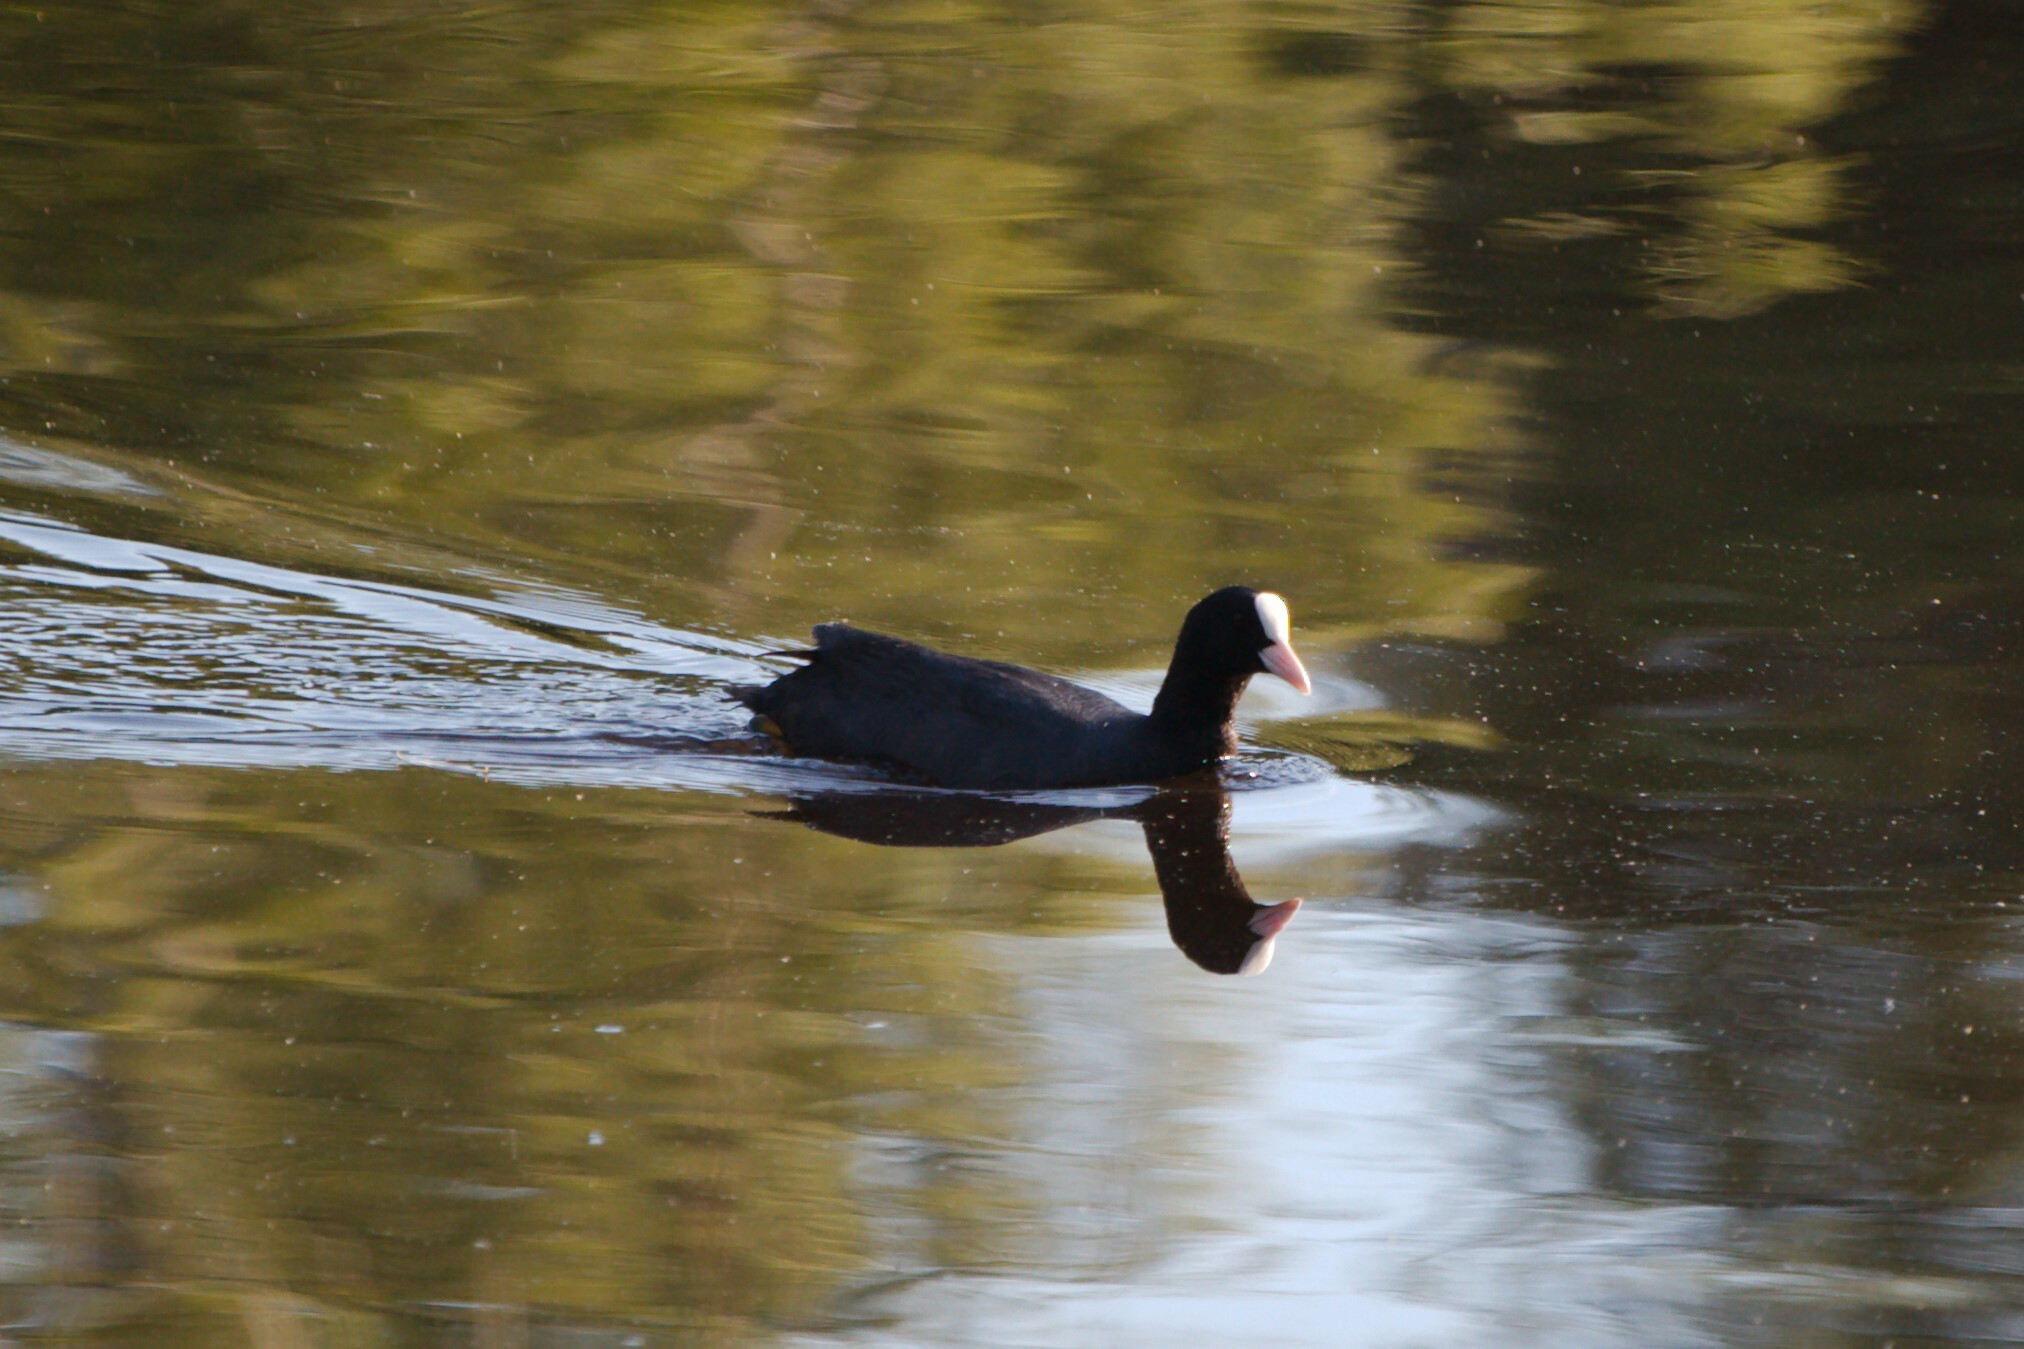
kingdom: Animalia
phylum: Chordata
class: Aves
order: Gruiformes
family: Rallidae
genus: Fulica
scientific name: Fulica atra
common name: Eurasian coot
